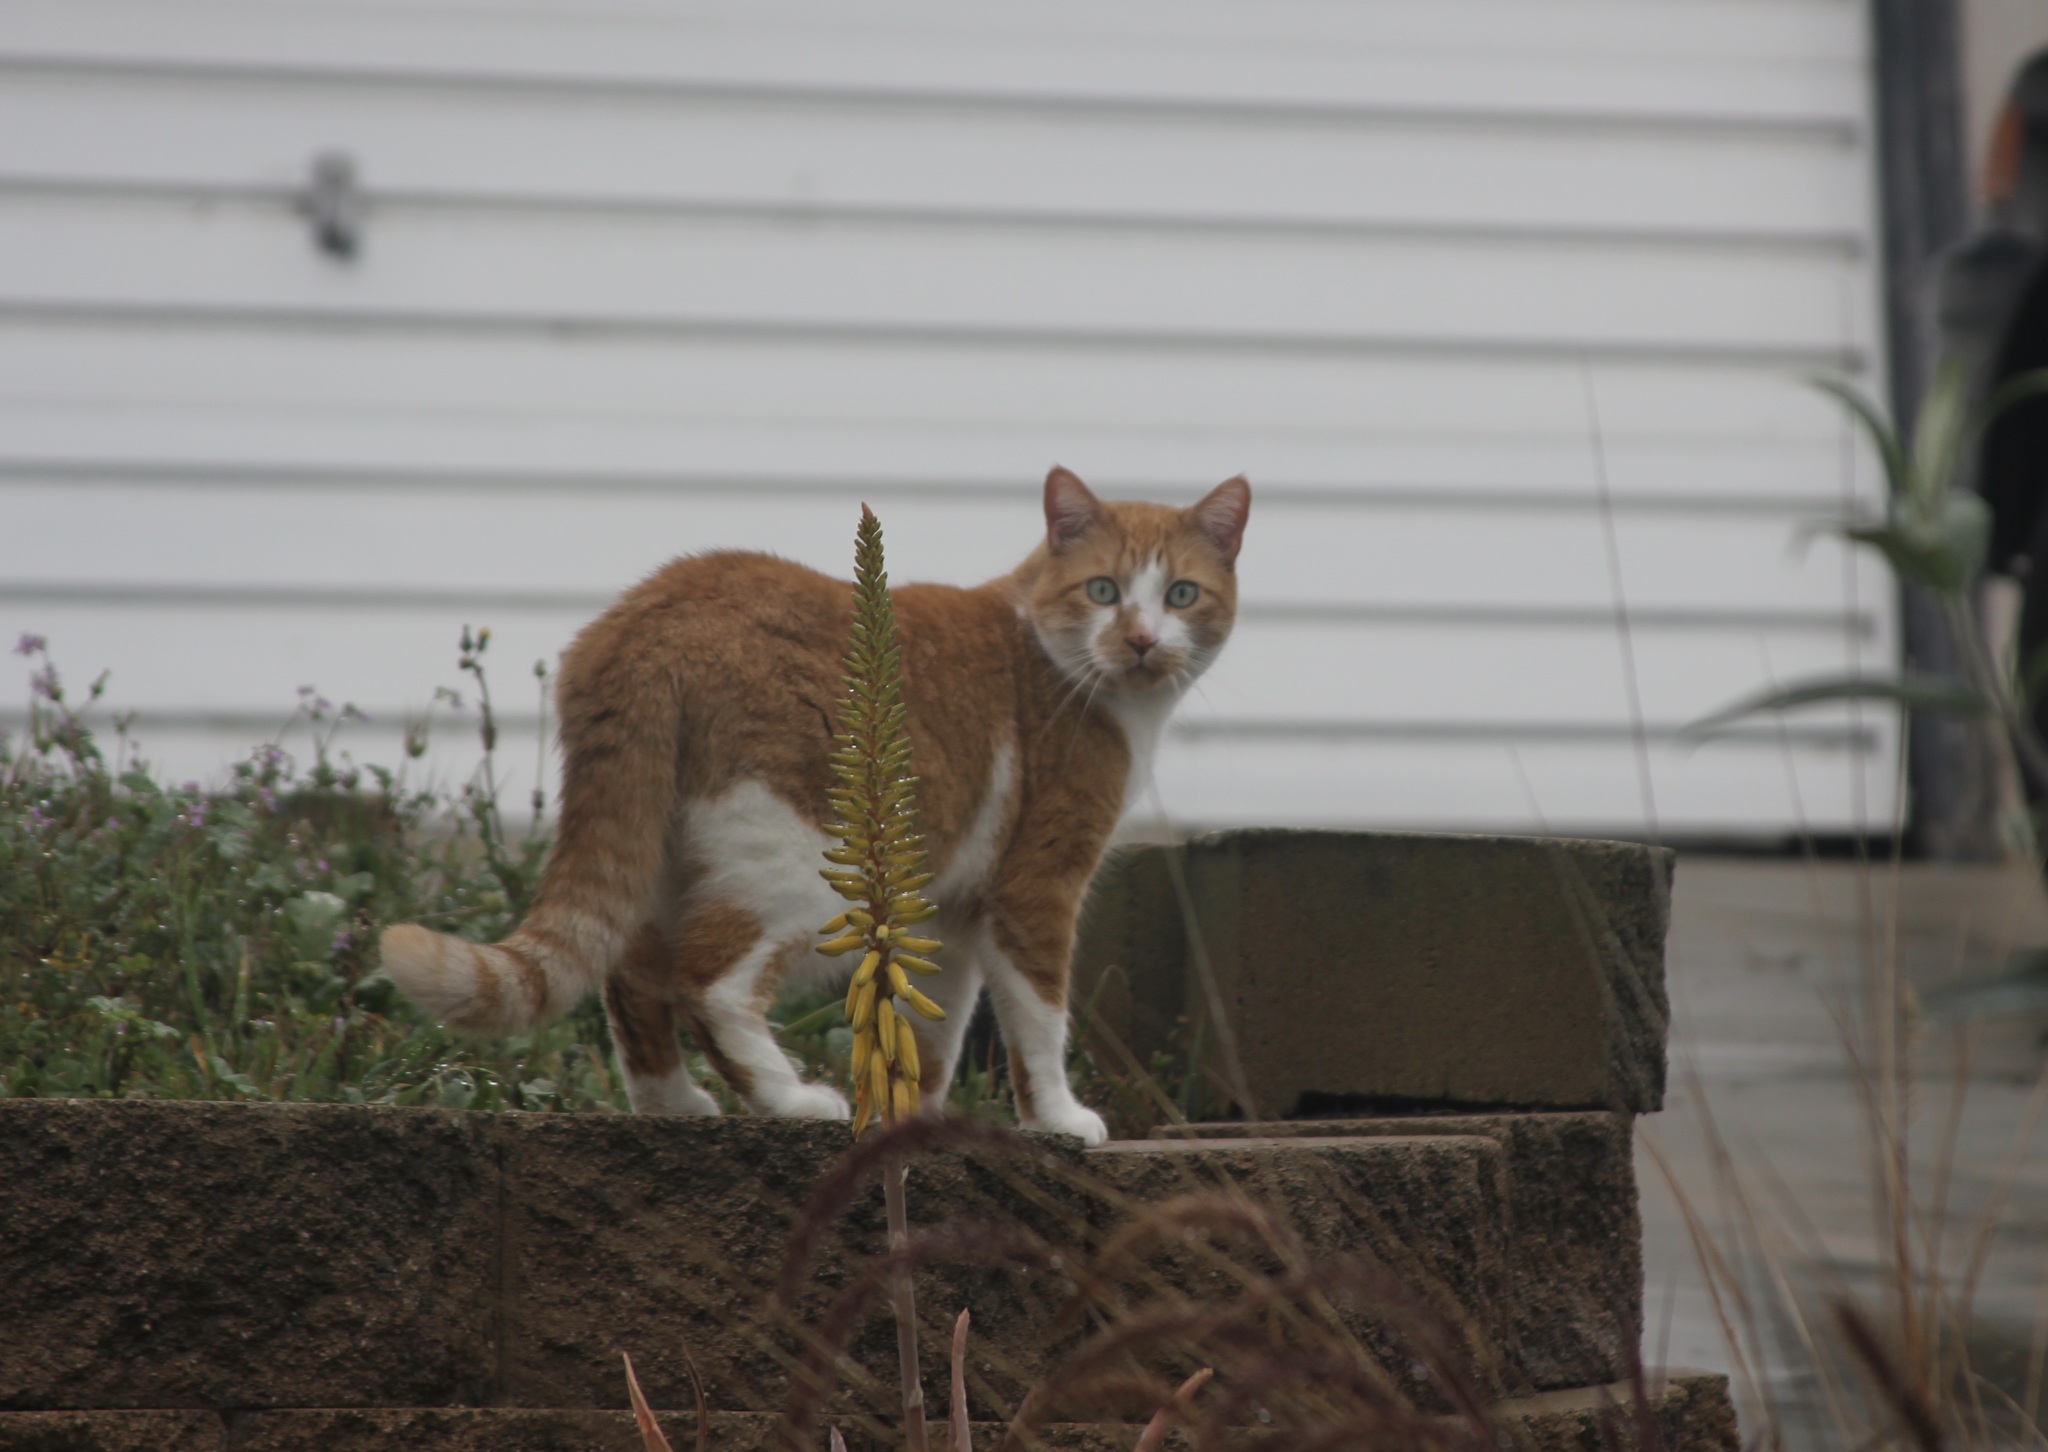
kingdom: Animalia
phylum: Chordata
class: Mammalia
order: Carnivora
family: Felidae
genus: Felis
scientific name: Felis catus
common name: Domestic cat
